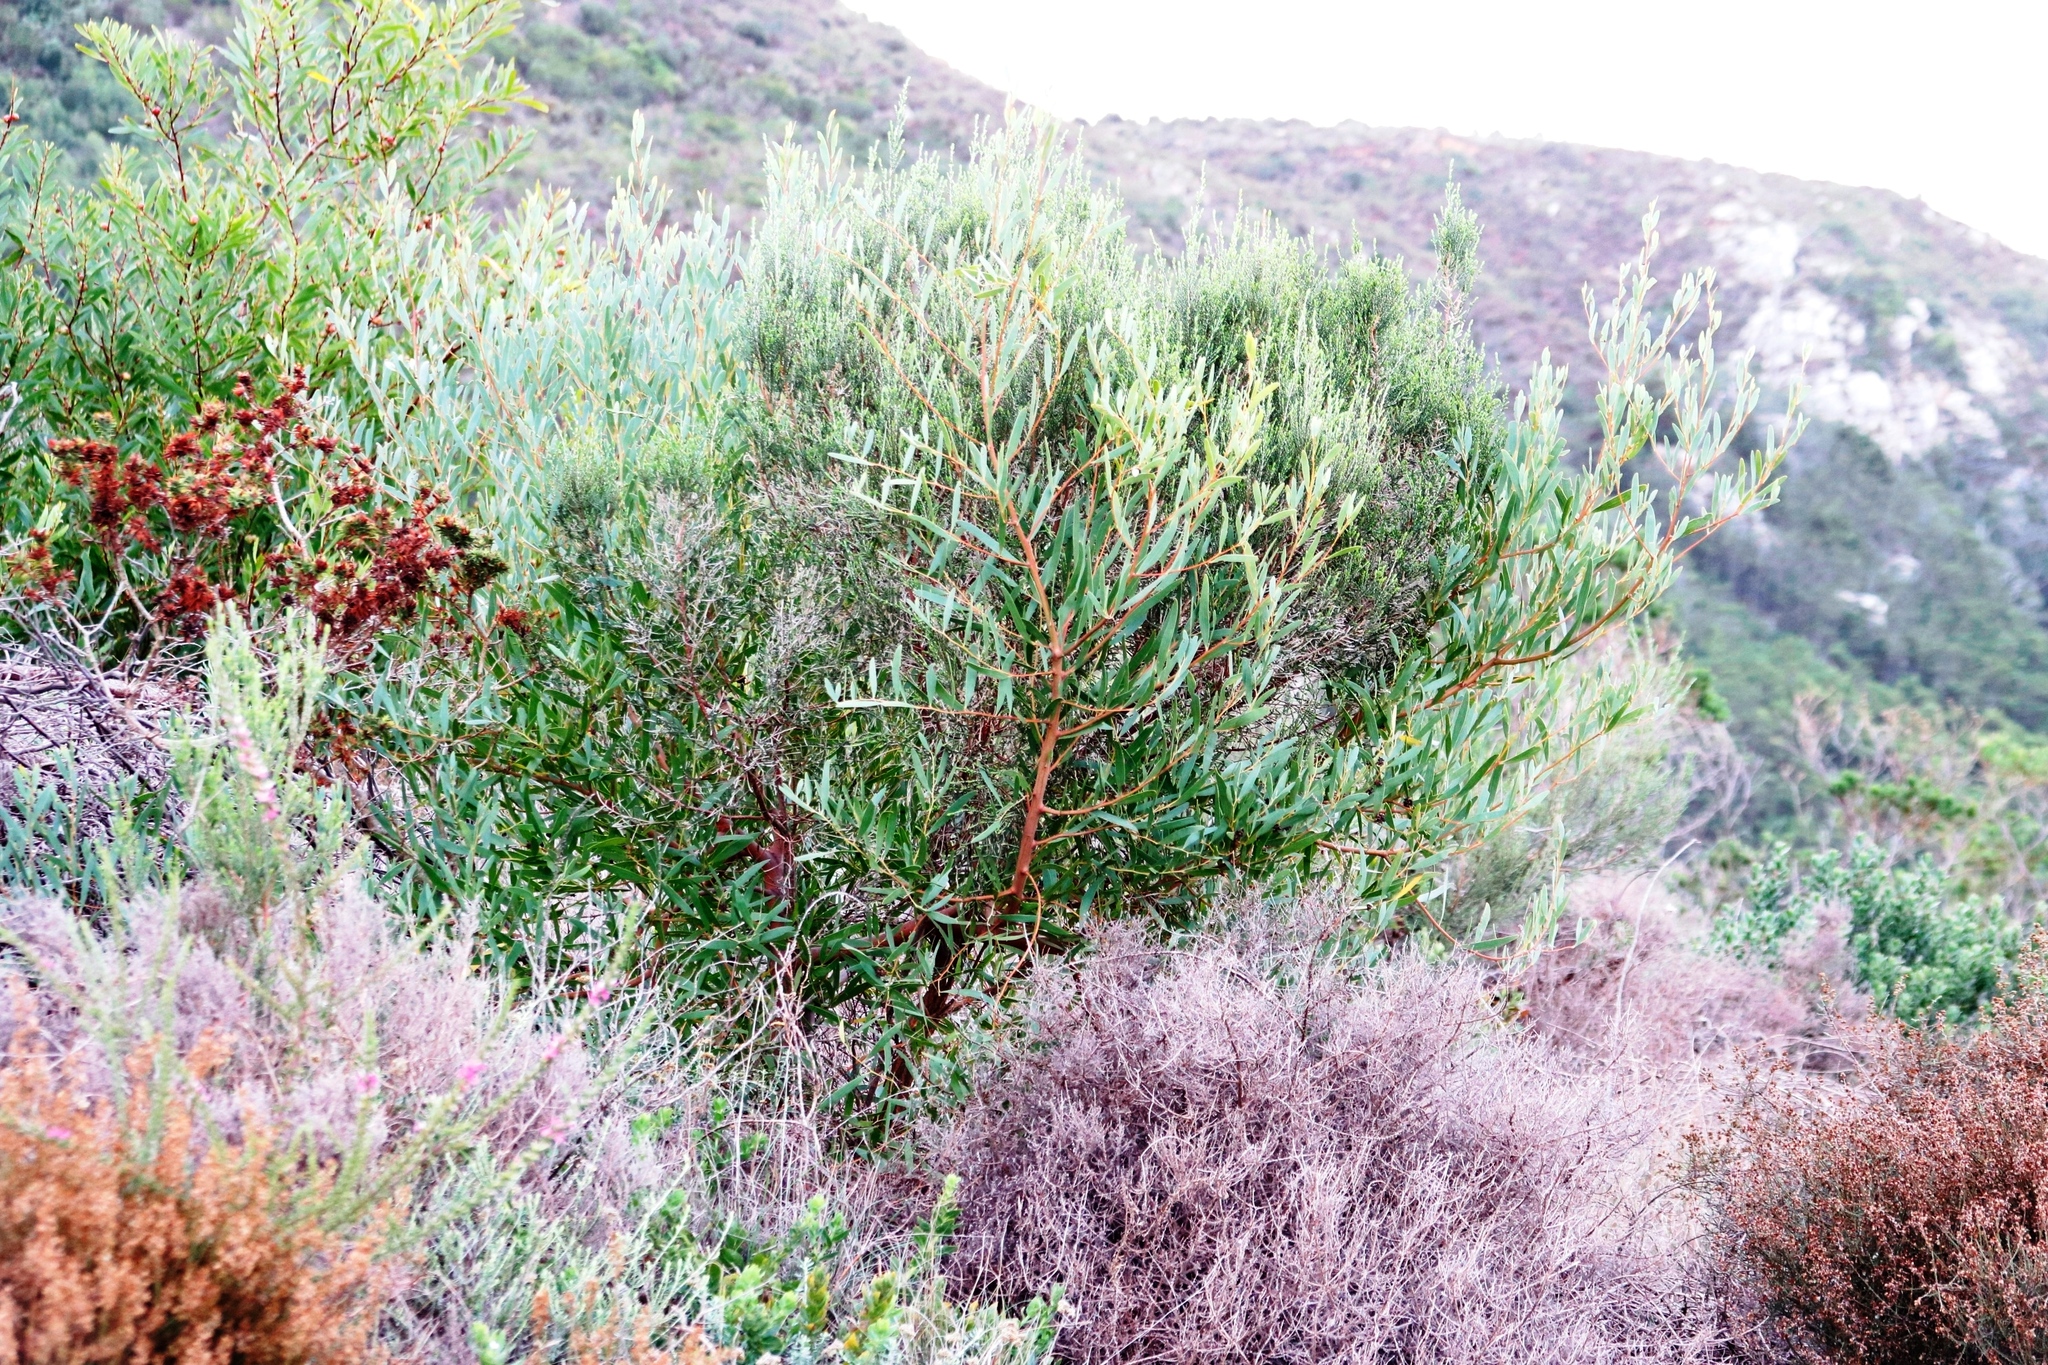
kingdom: Plantae
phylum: Tracheophyta
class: Magnoliopsida
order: Fabales
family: Fabaceae
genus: Acacia
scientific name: Acacia longifolia
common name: Sydney golden wattle
